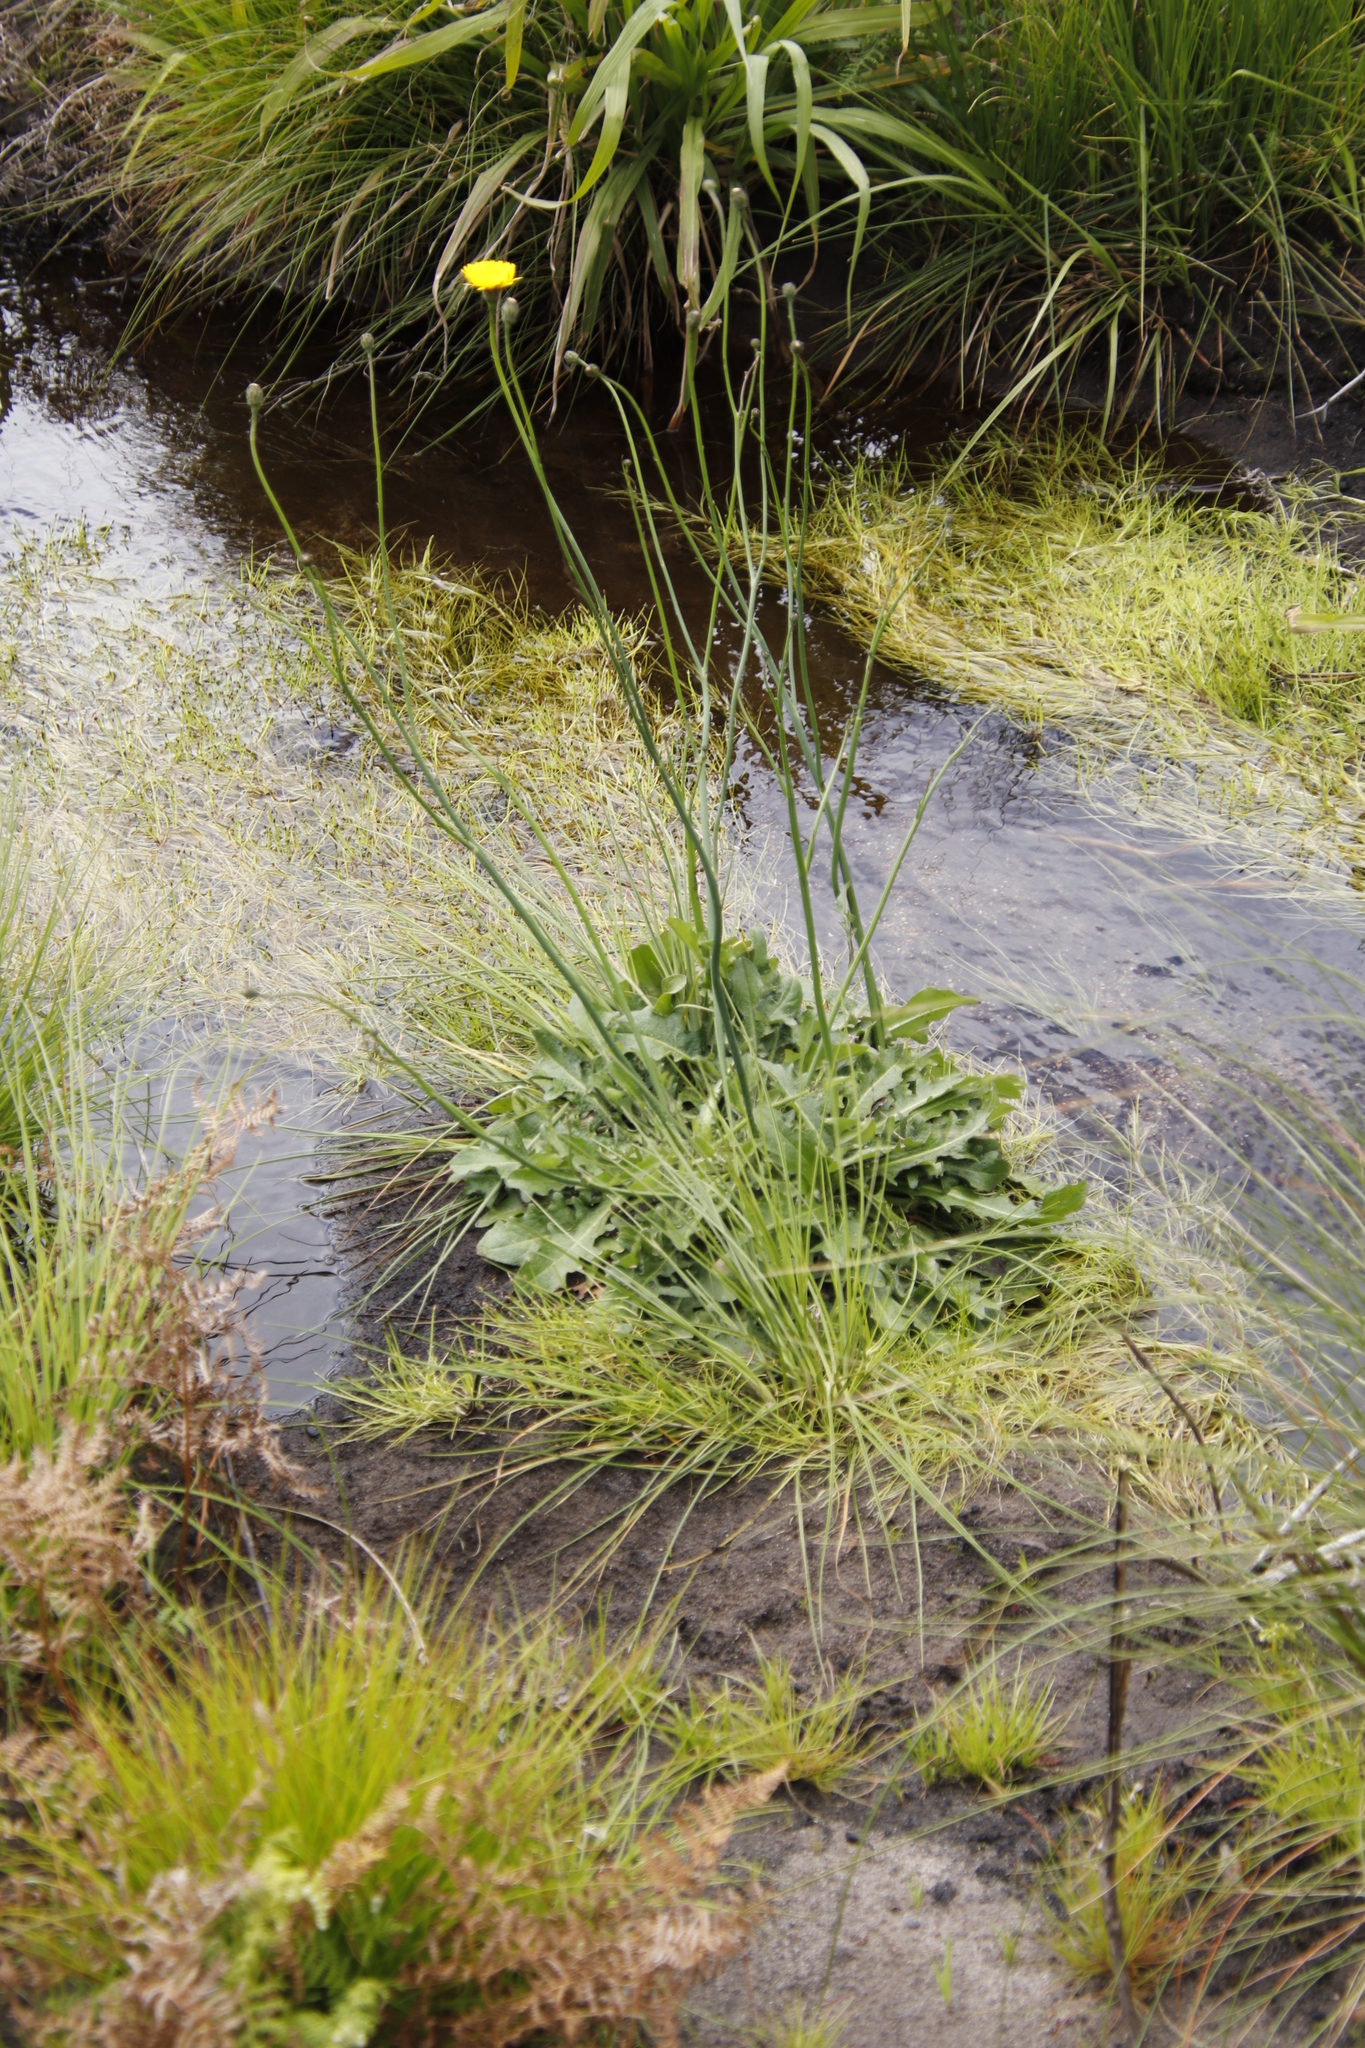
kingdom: Plantae
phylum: Tracheophyta
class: Magnoliopsida
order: Asterales
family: Asteraceae
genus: Hypochaeris
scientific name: Hypochaeris radicata
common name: Flatweed
